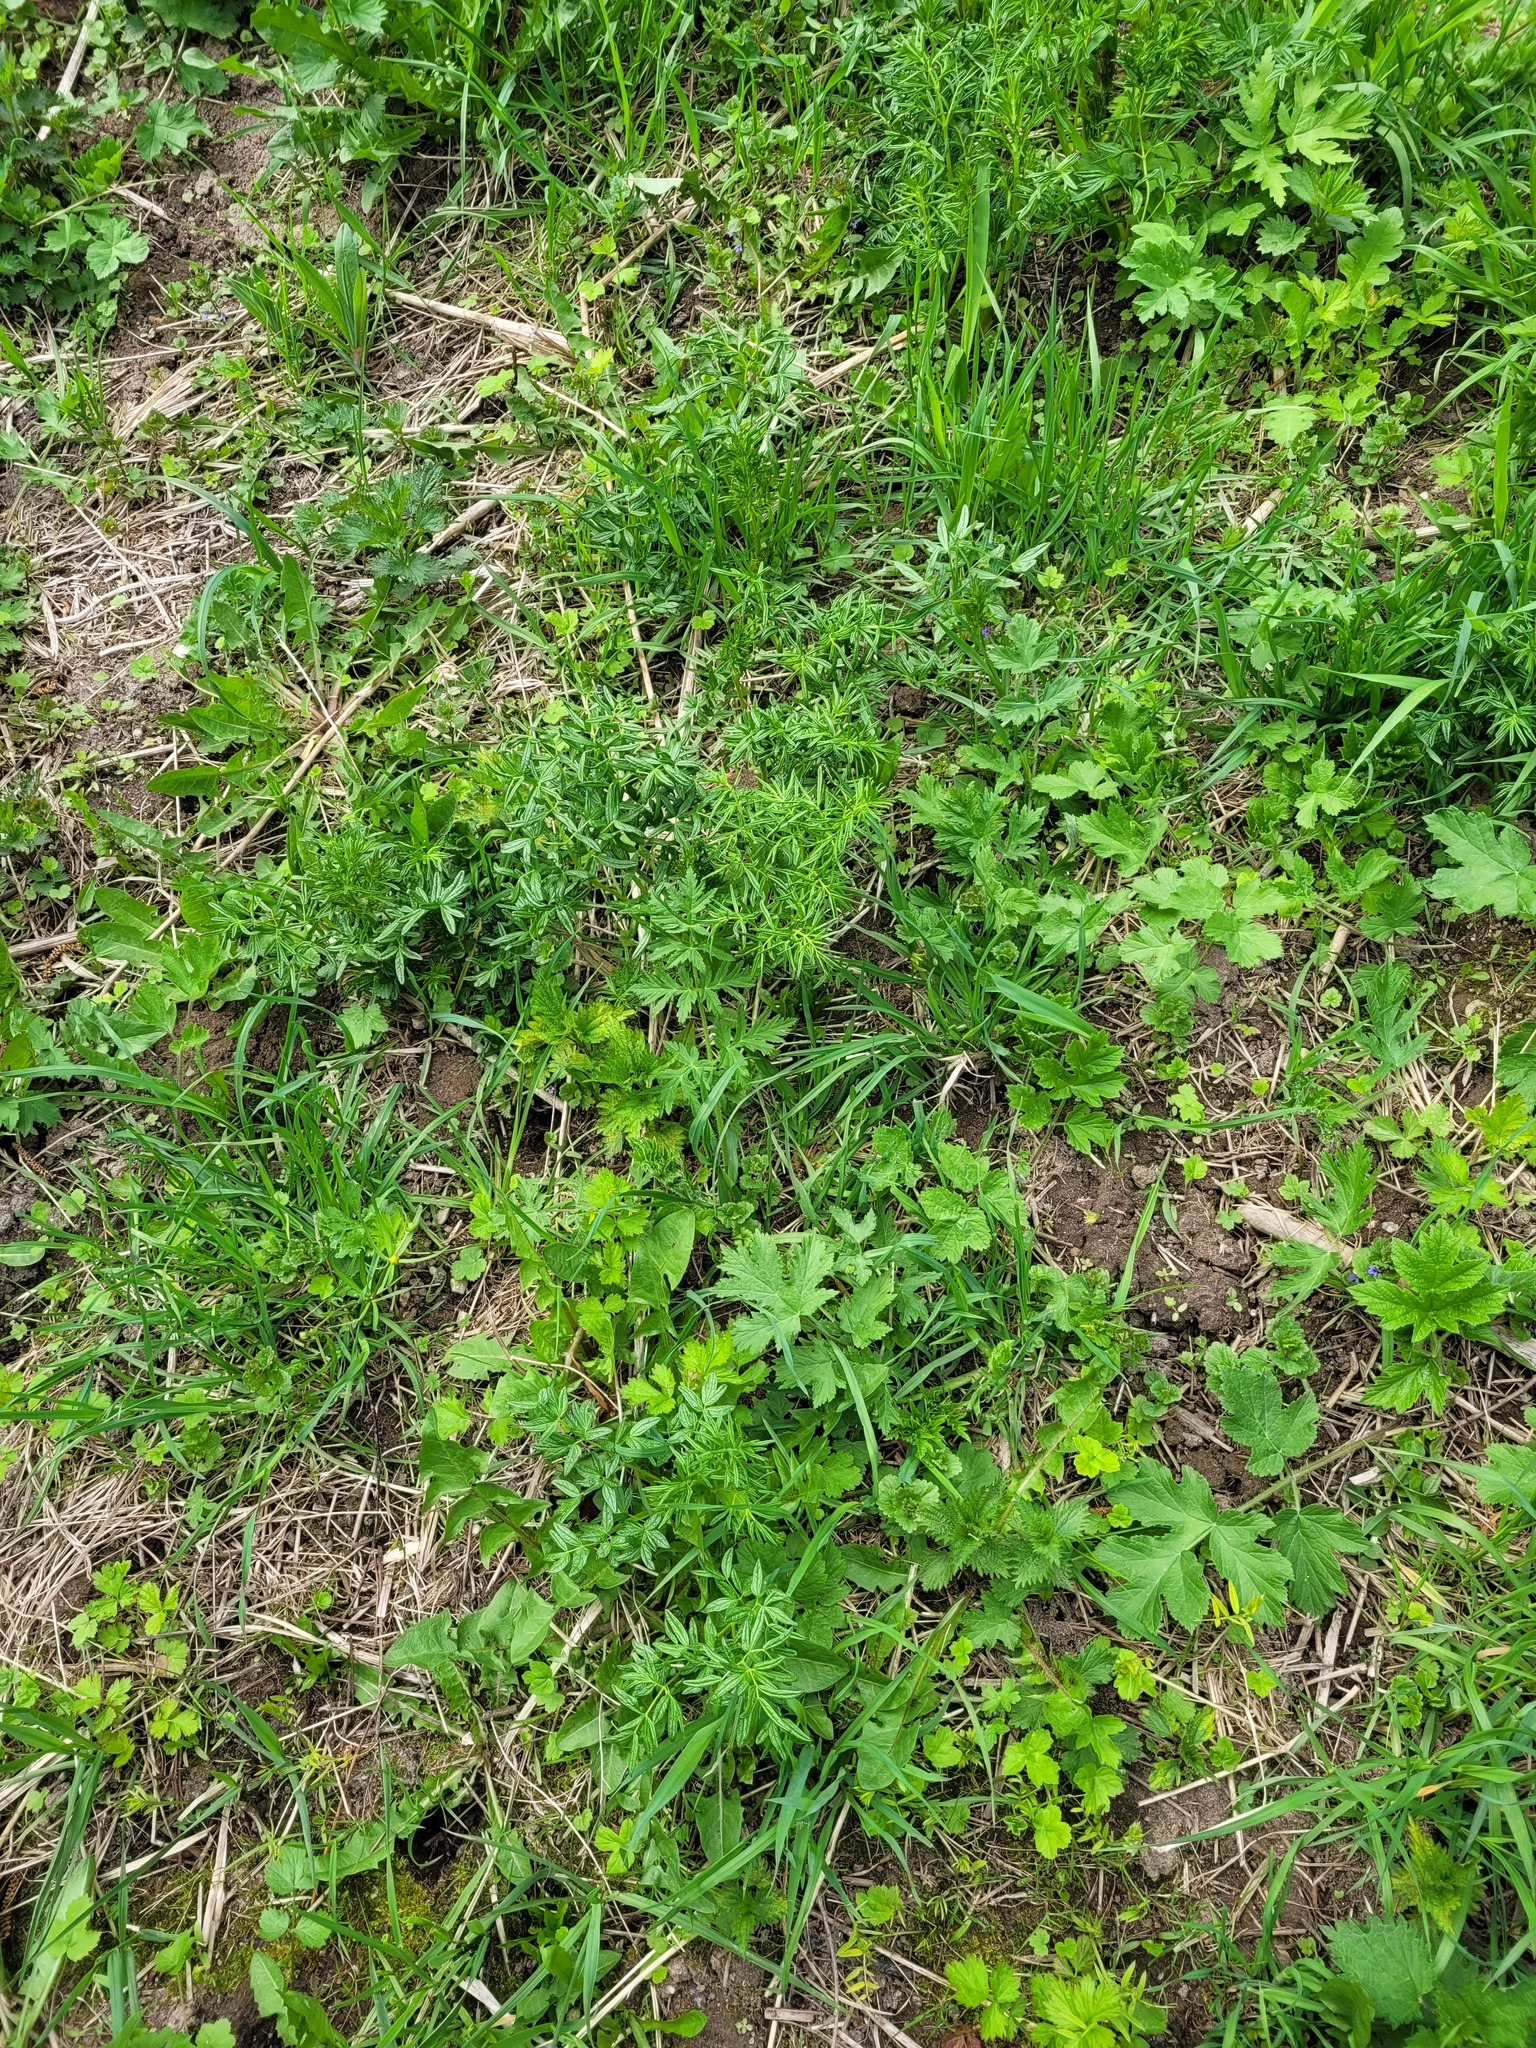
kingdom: Plantae
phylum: Tracheophyta
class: Magnoliopsida
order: Ranunculales
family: Ranunculaceae
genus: Thalictrum
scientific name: Thalictrum lucidum
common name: Shining meadow-rue
